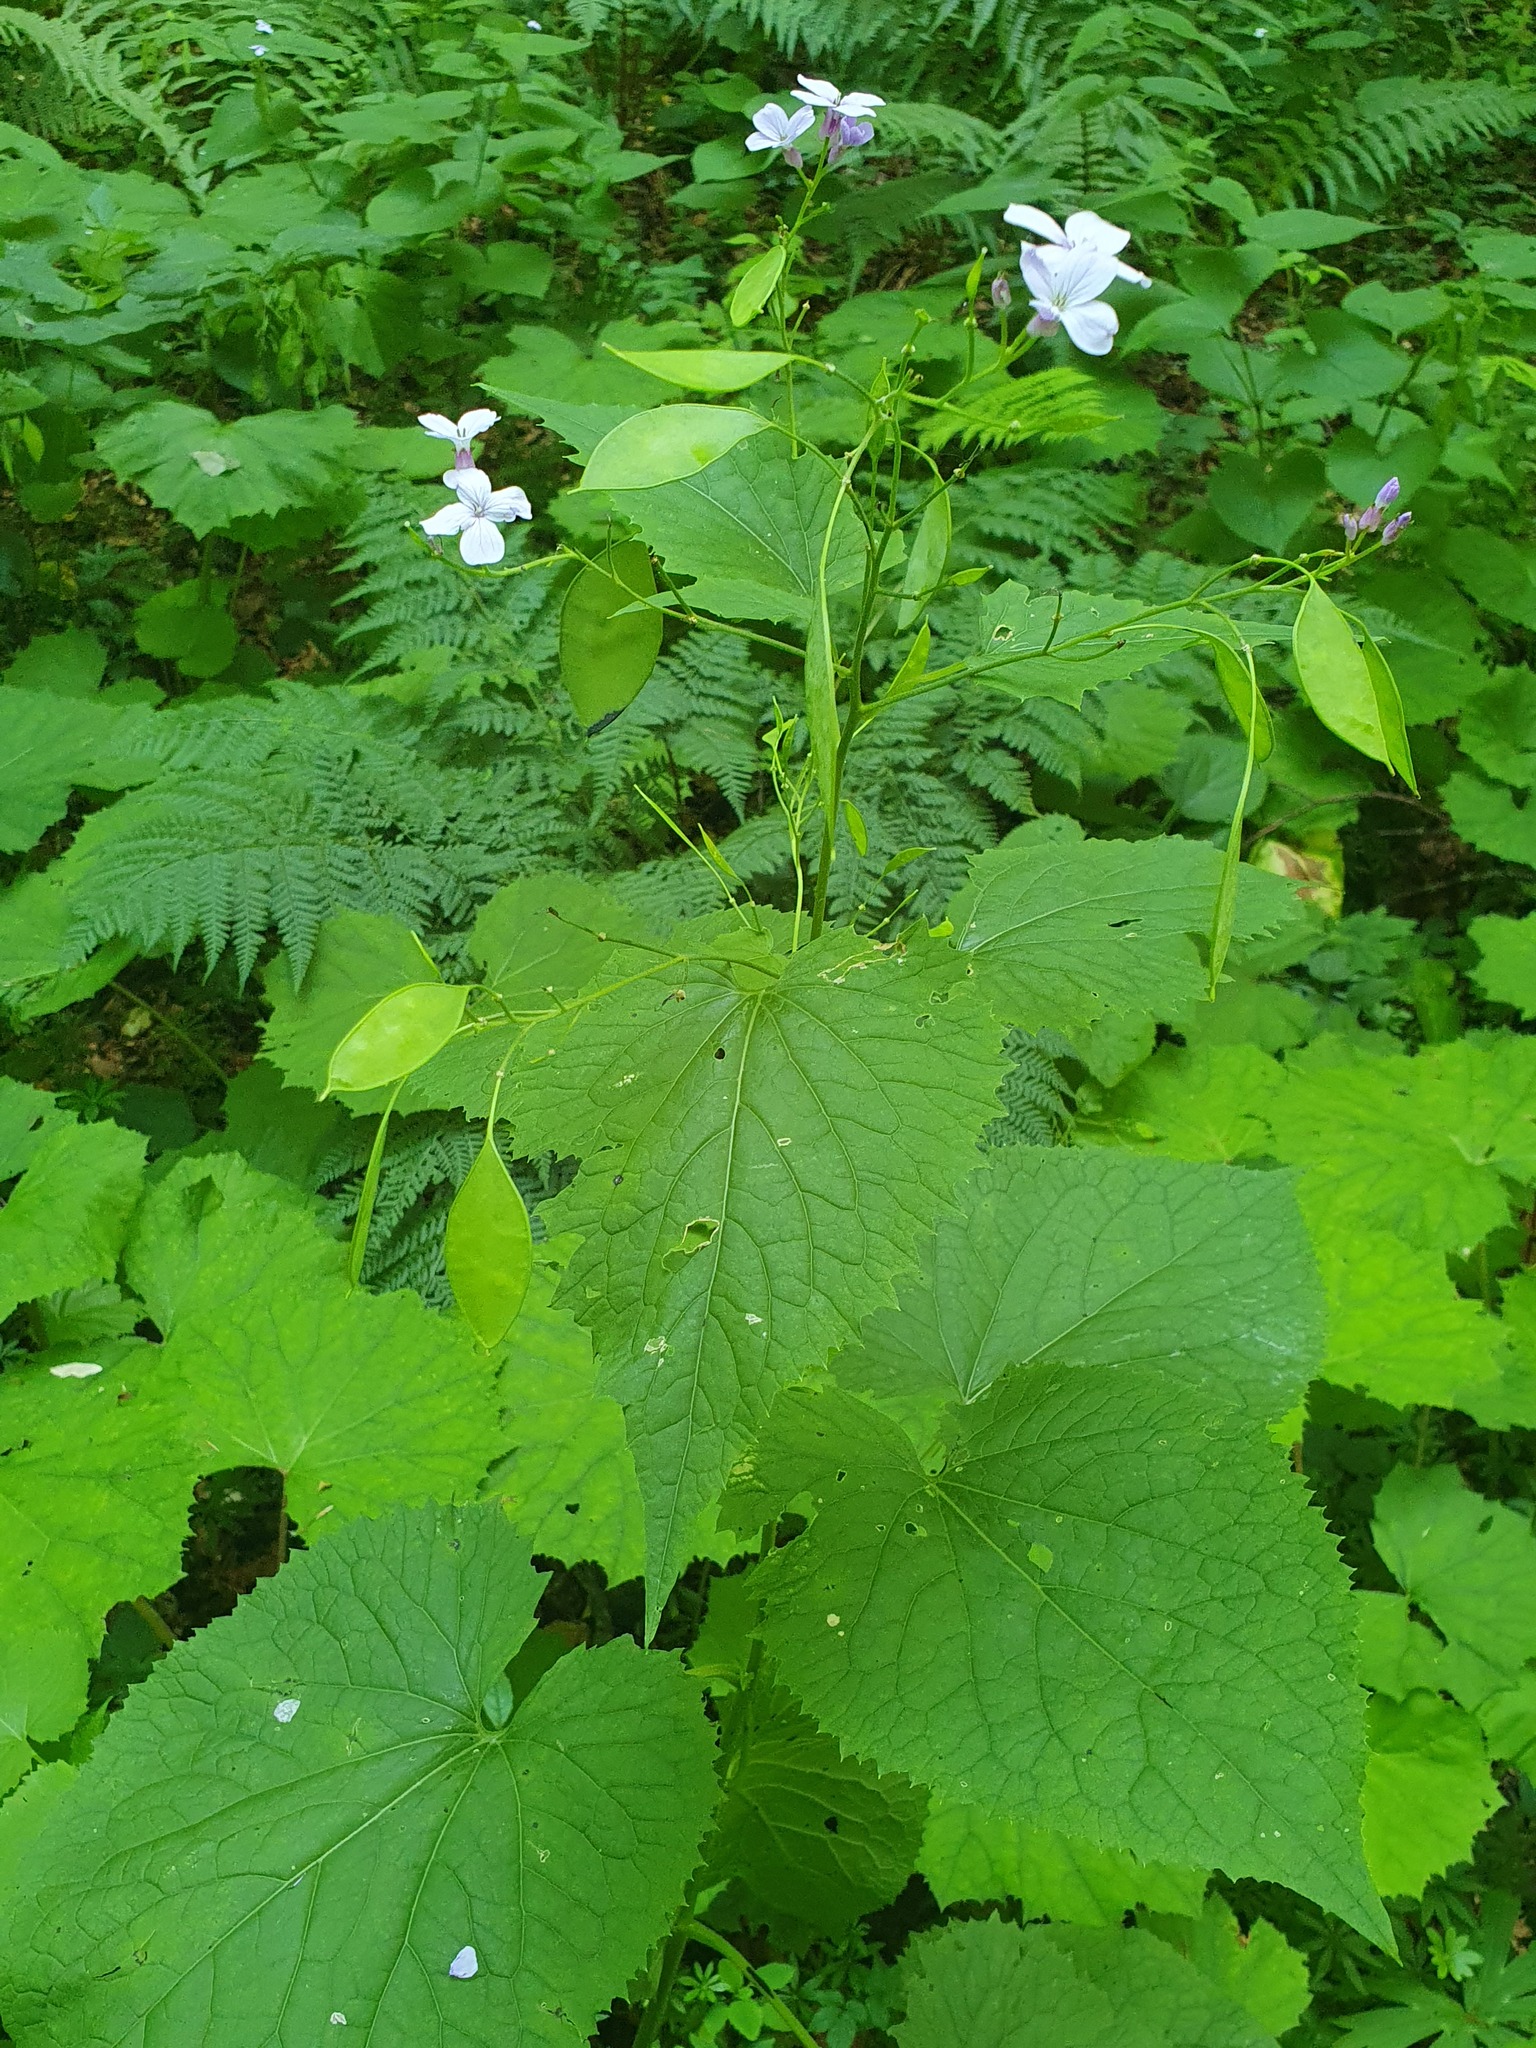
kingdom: Plantae
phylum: Tracheophyta
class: Magnoliopsida
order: Brassicales
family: Brassicaceae
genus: Lunaria
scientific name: Lunaria rediviva
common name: Perennial honesty
